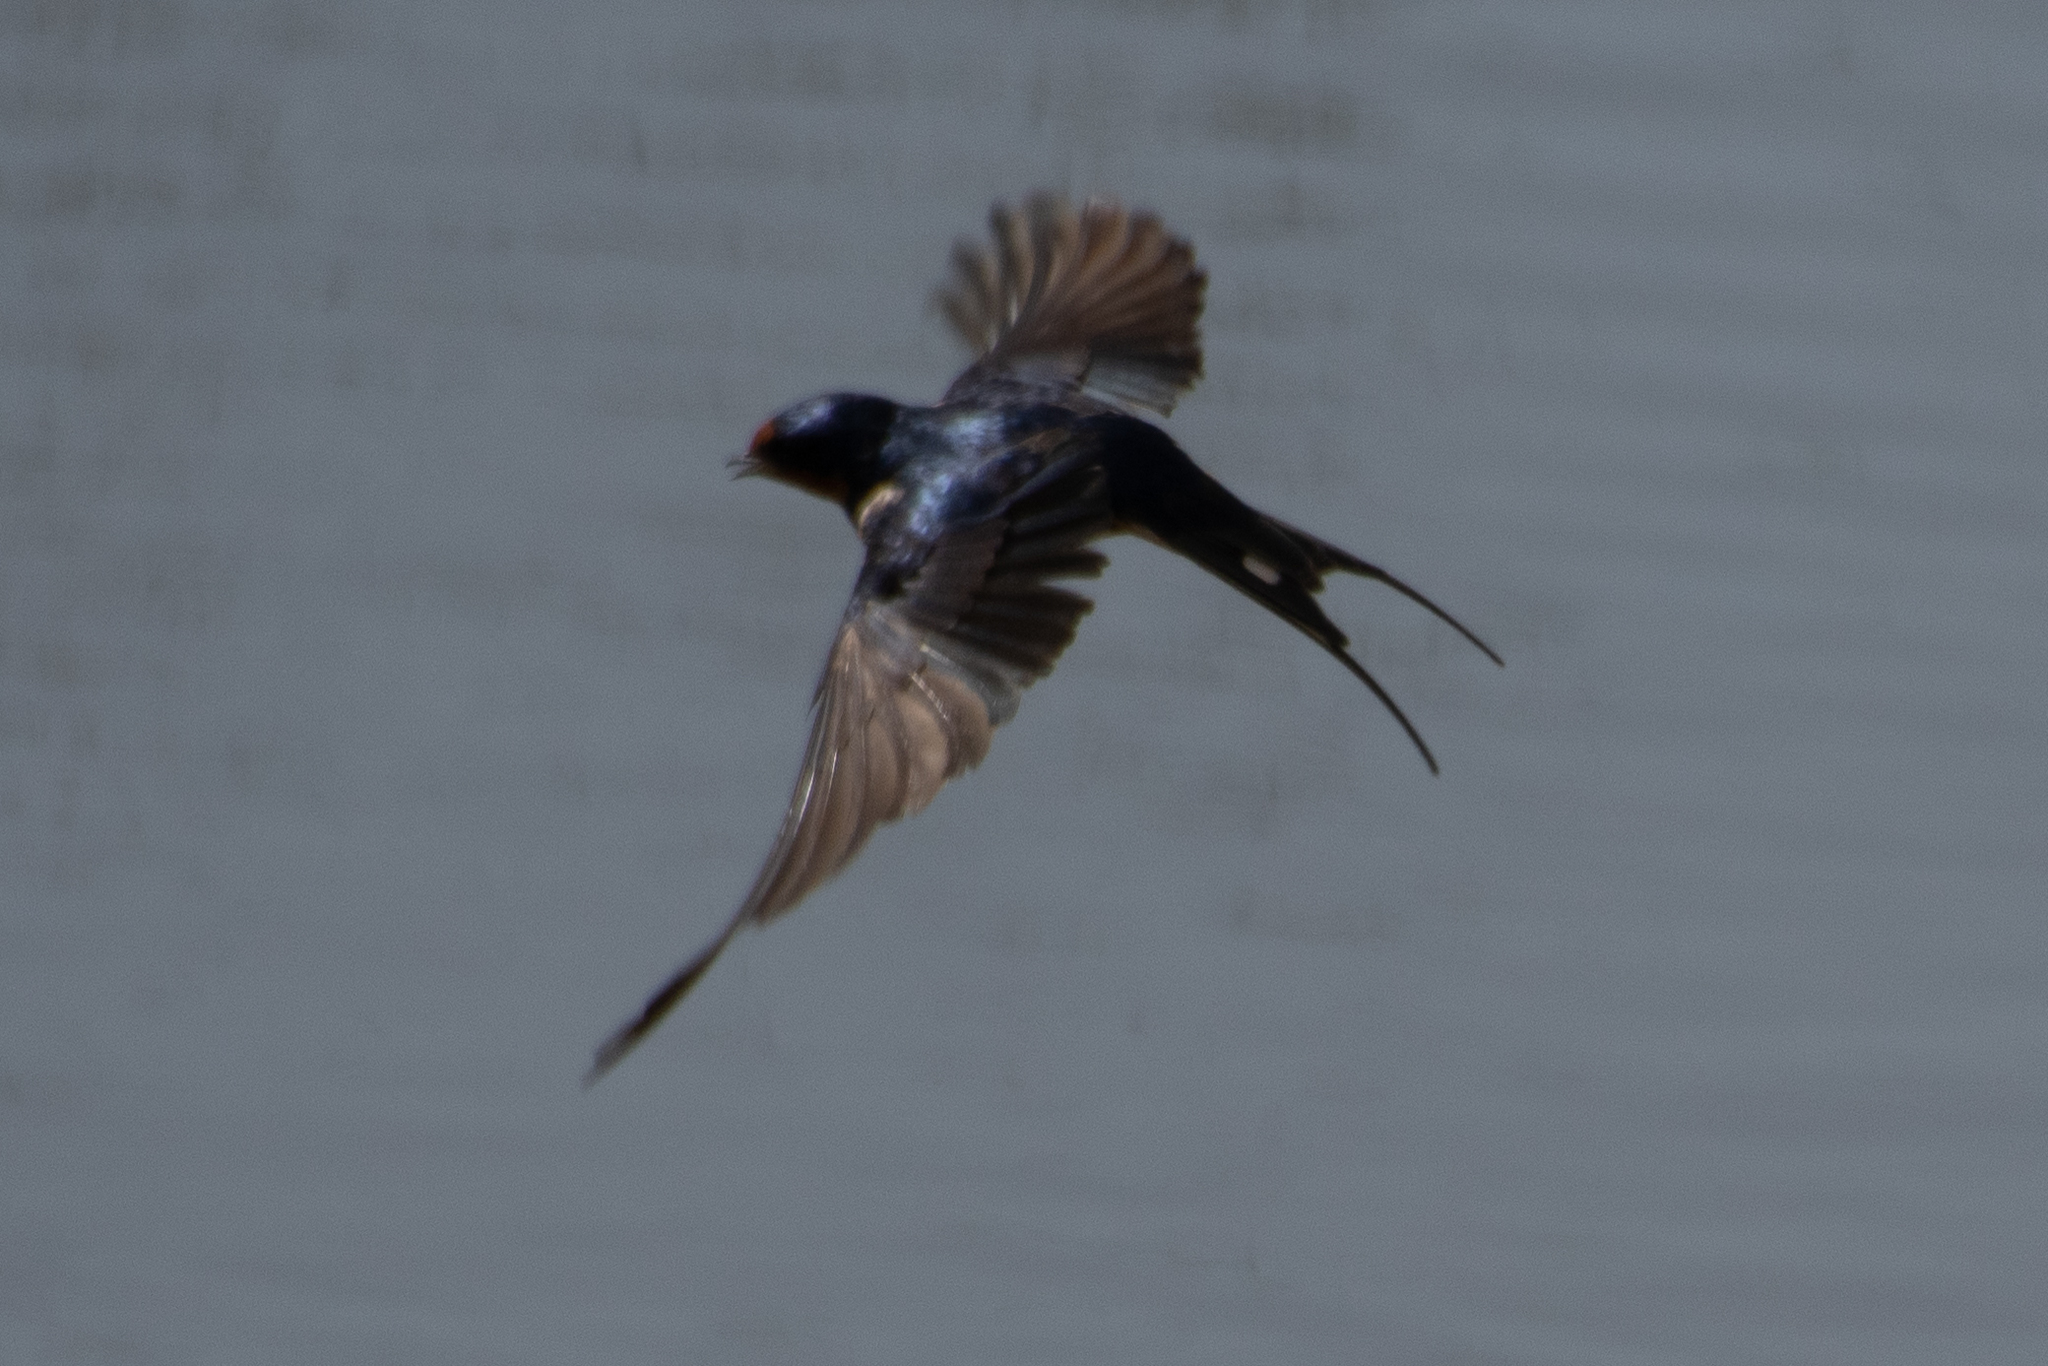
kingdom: Animalia
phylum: Chordata
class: Aves
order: Passeriformes
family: Hirundinidae
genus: Hirundo
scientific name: Hirundo rustica
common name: Barn swallow
